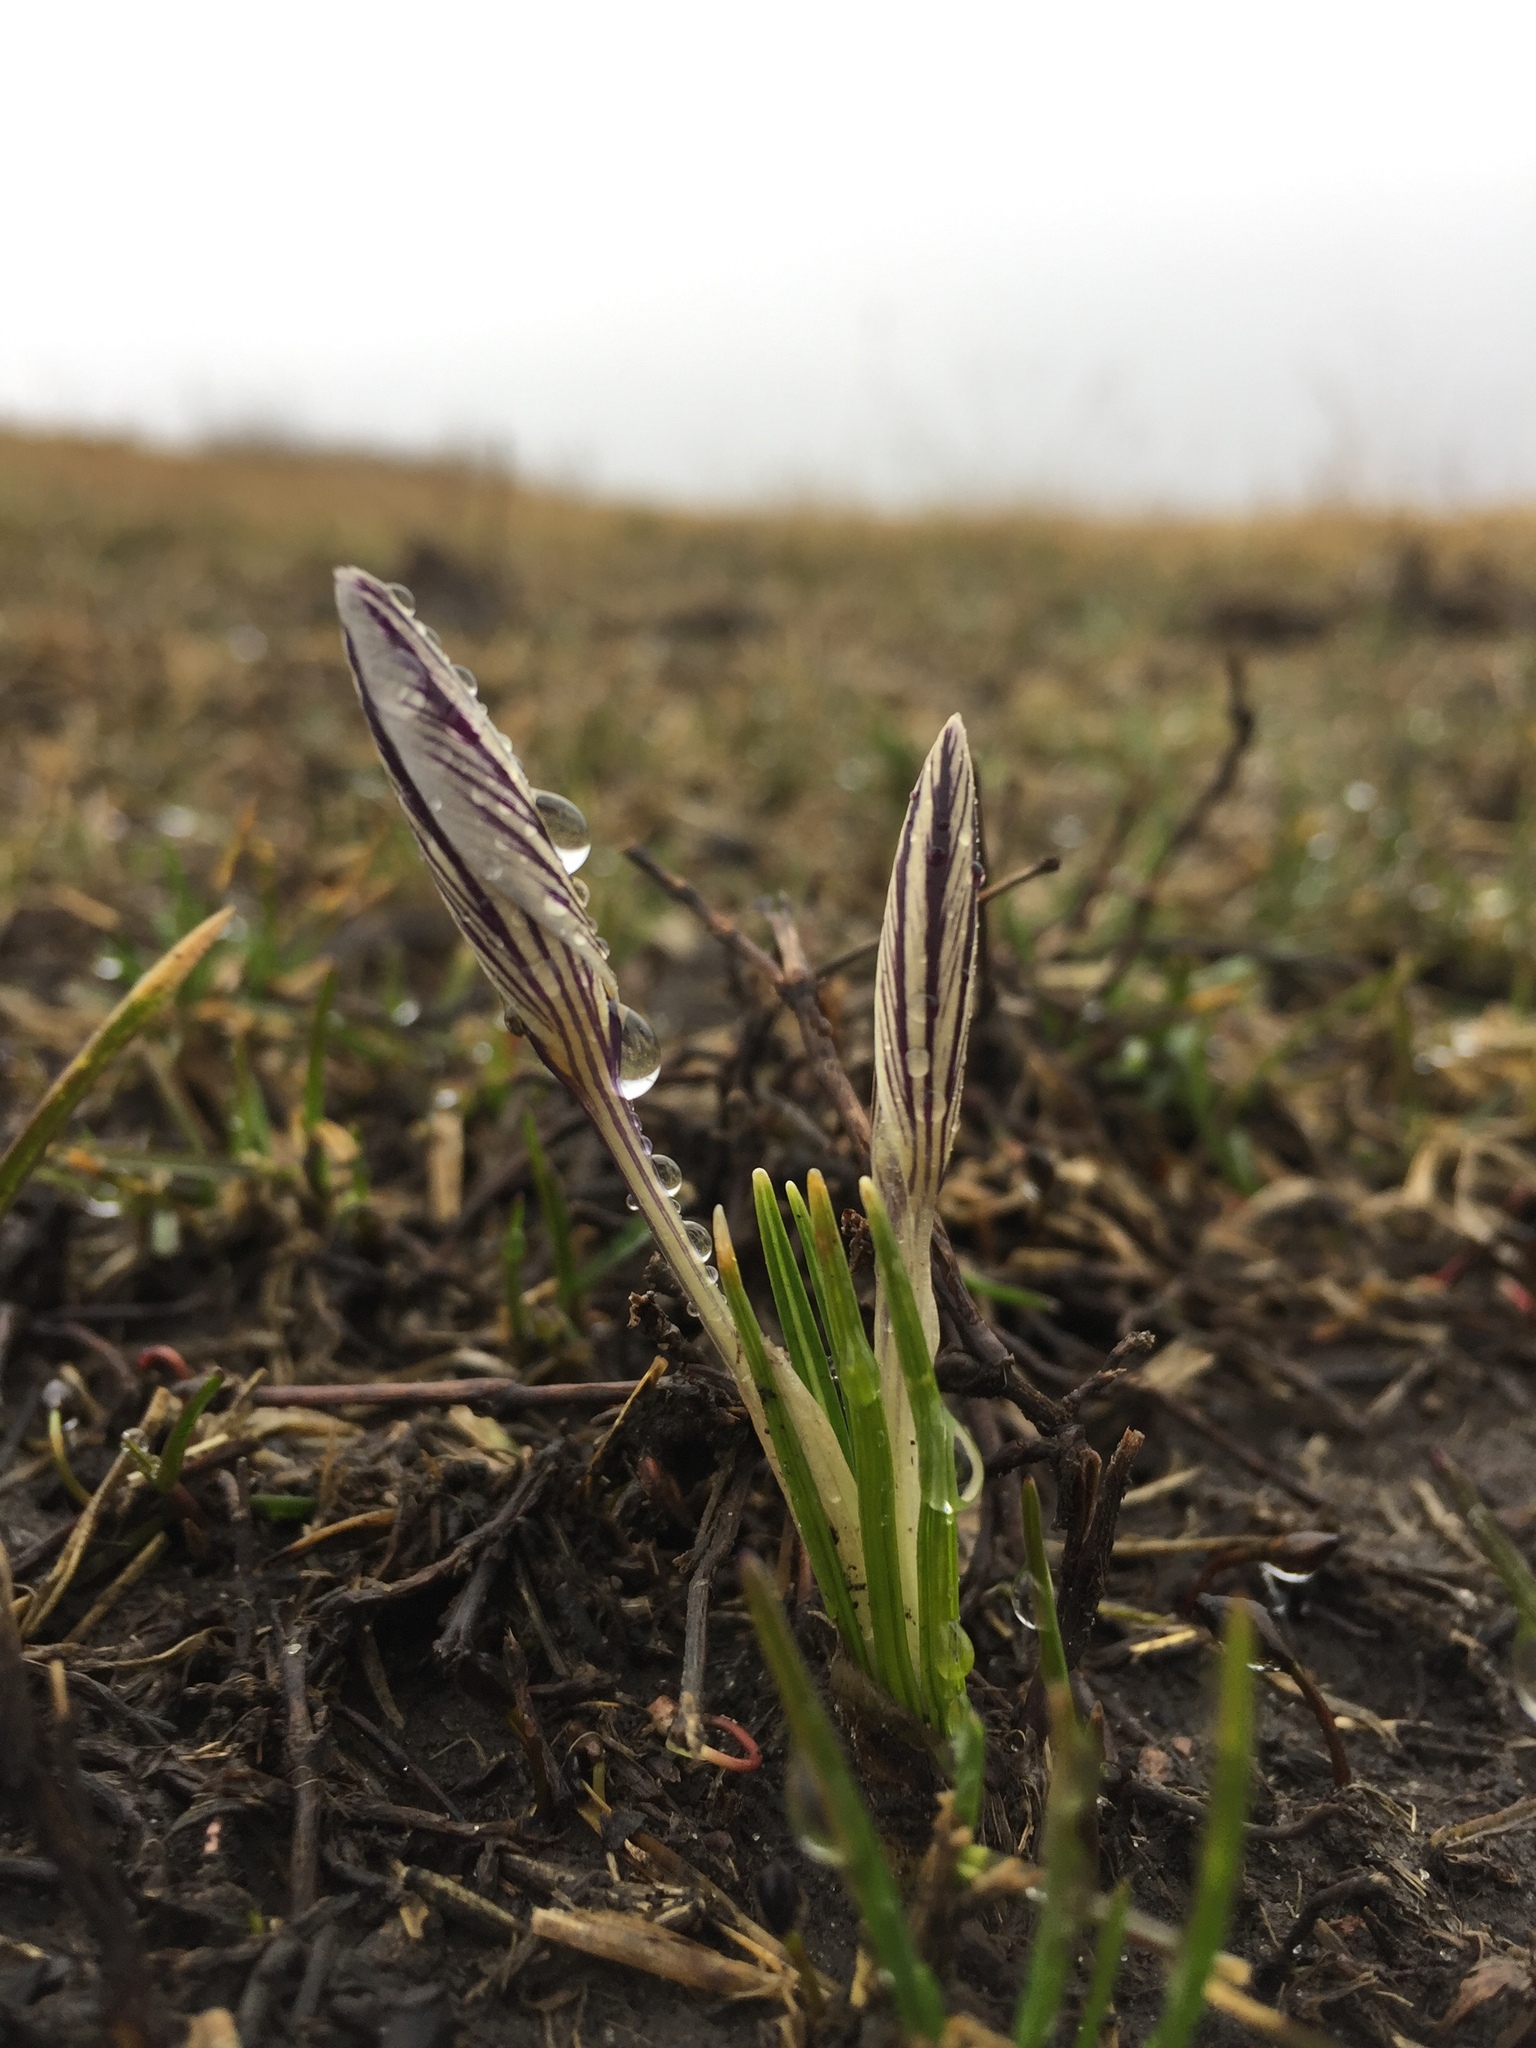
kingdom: Plantae
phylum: Tracheophyta
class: Liliopsida
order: Asparagales
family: Iridaceae
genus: Crocus
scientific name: Crocus reticulatus
